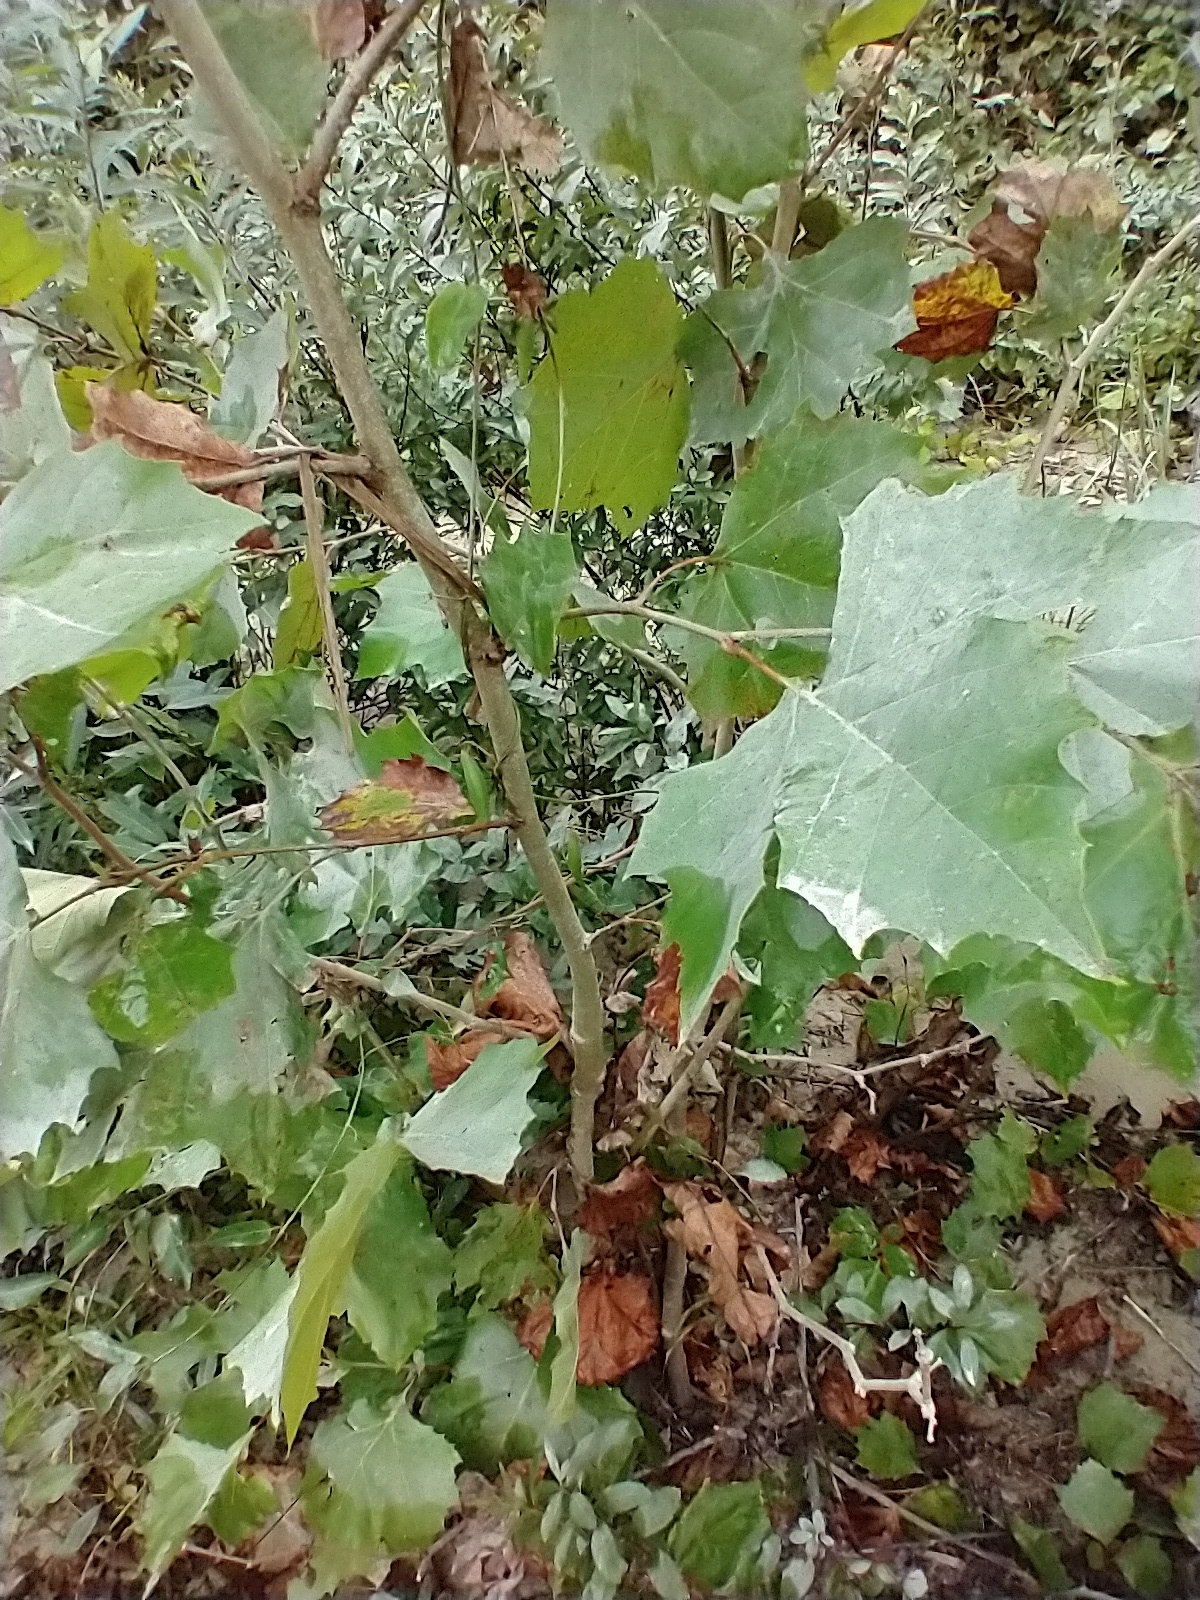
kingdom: Plantae
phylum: Tracheophyta
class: Magnoliopsida
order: Proteales
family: Platanaceae
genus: Platanus
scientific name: Platanus occidentalis
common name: American sycamore
